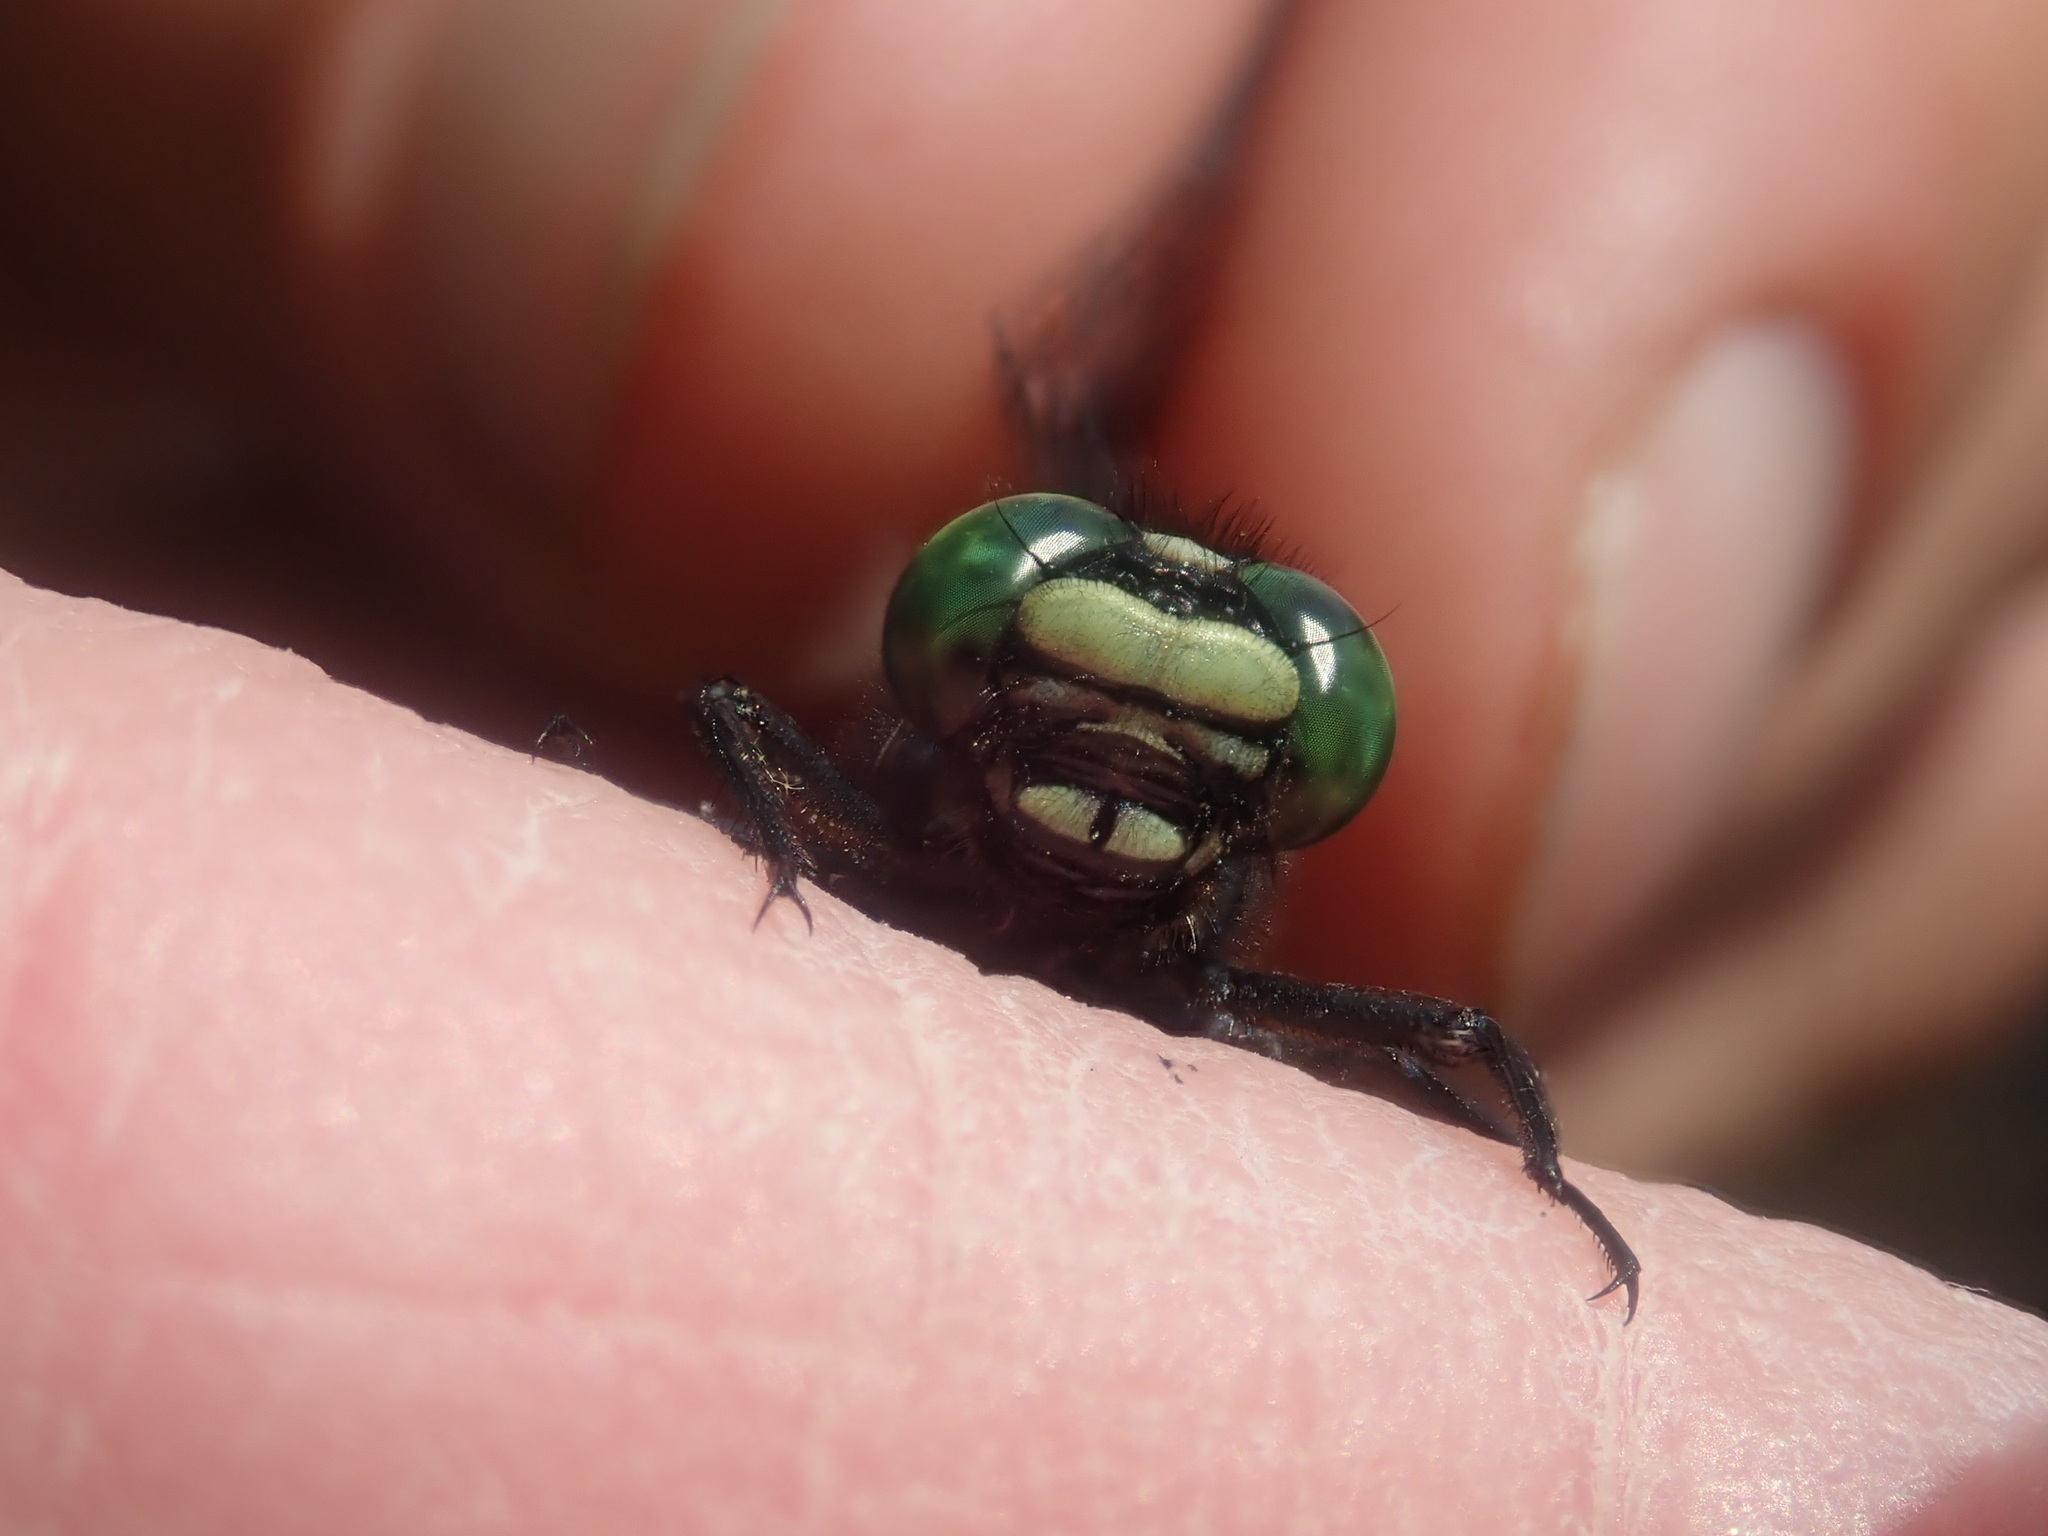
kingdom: Animalia
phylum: Arthropoda
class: Insecta
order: Odonata
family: Gomphidae
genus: Hylogomphus
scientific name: Hylogomphus adelphus
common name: Mustached clubtail
